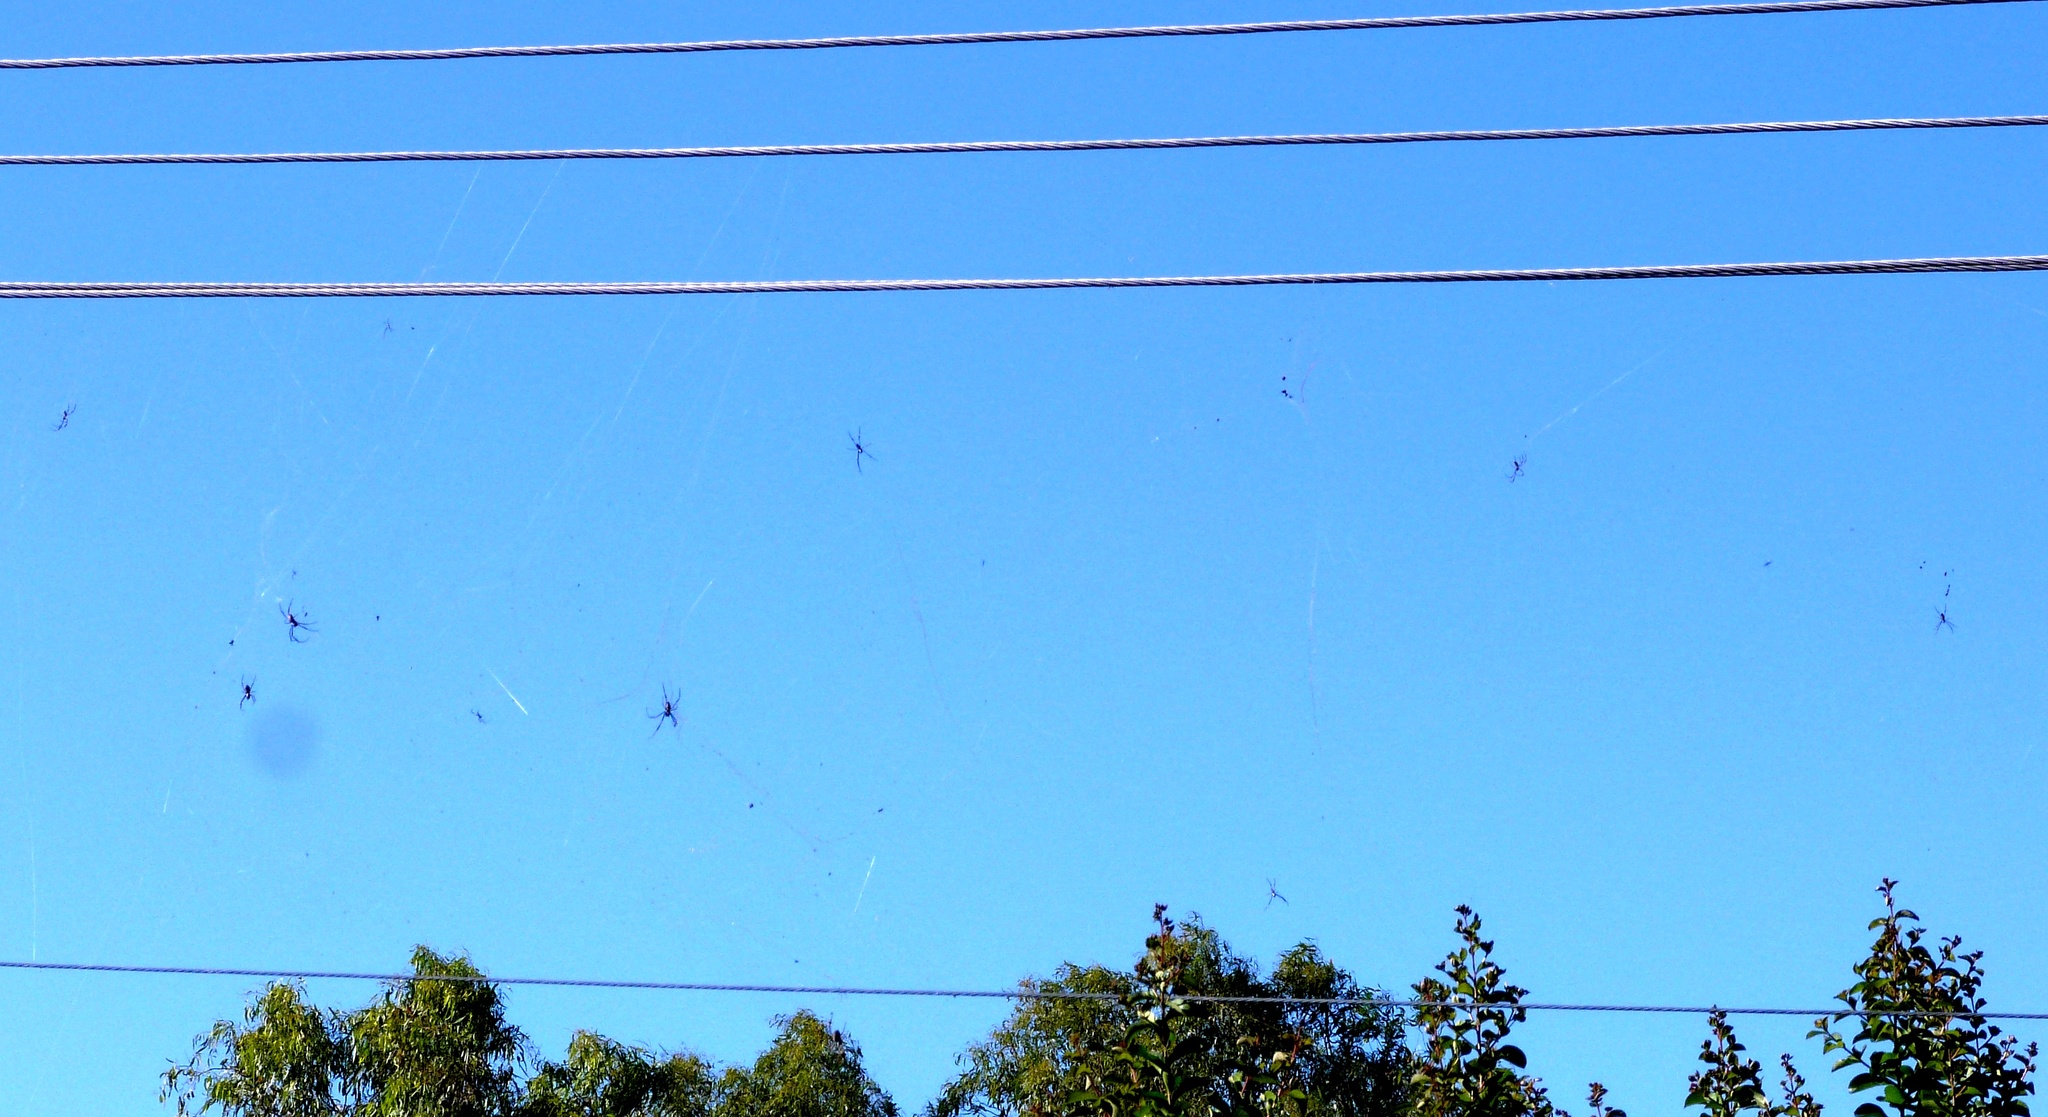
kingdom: Animalia
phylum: Arthropoda
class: Arachnida
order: Araneae
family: Araneidae
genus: Trichonephila
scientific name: Trichonephila plumipes
